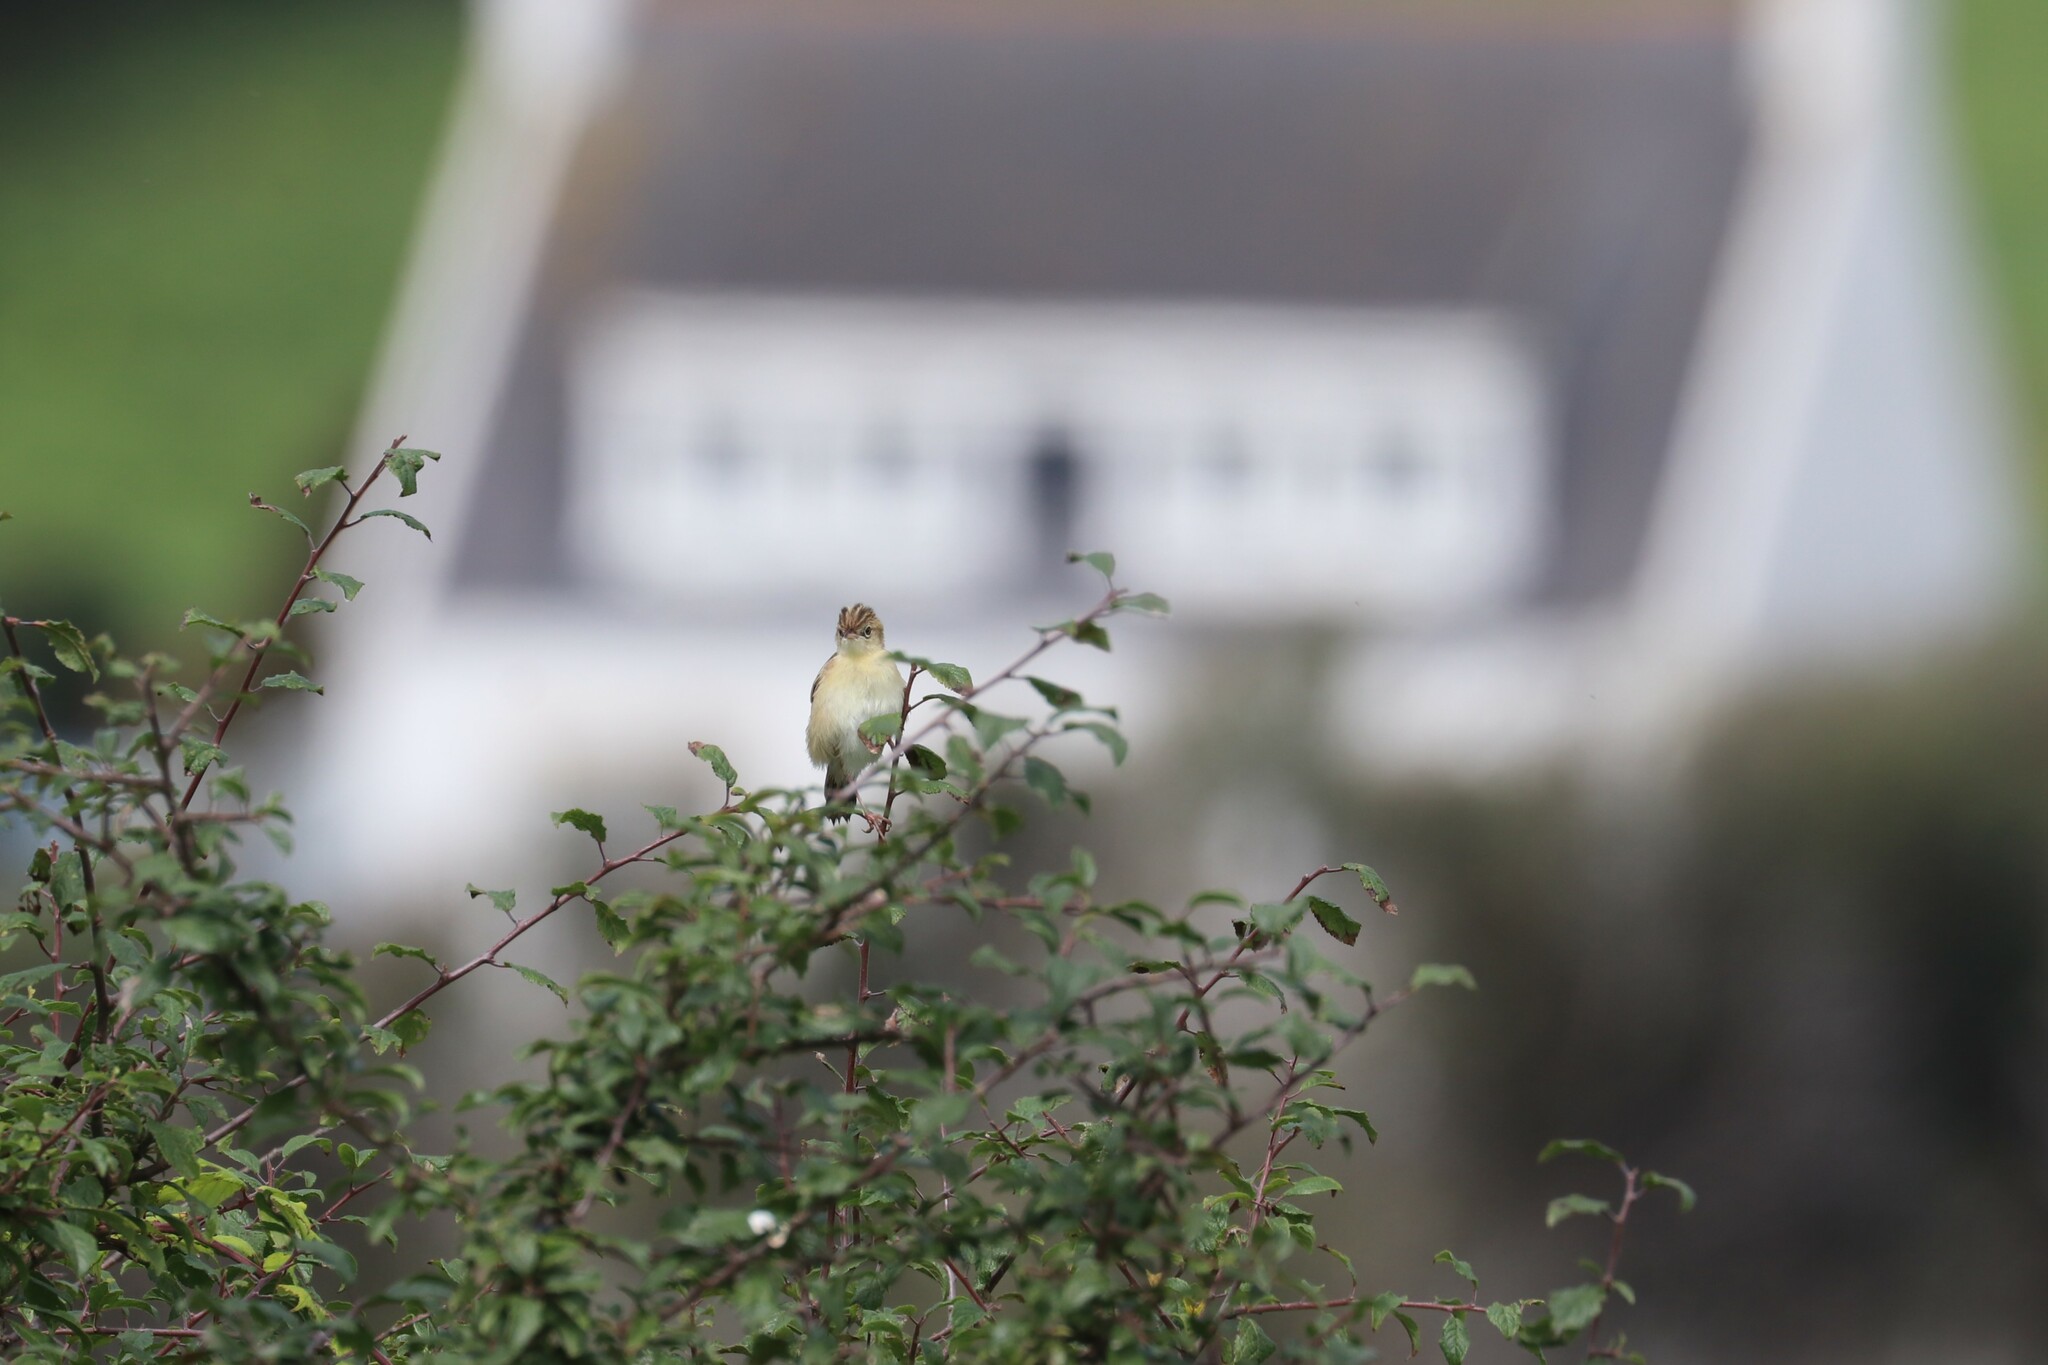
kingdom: Animalia
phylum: Chordata
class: Aves
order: Passeriformes
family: Cisticolidae
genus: Cisticola
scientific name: Cisticola juncidis
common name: Zitting cisticola
